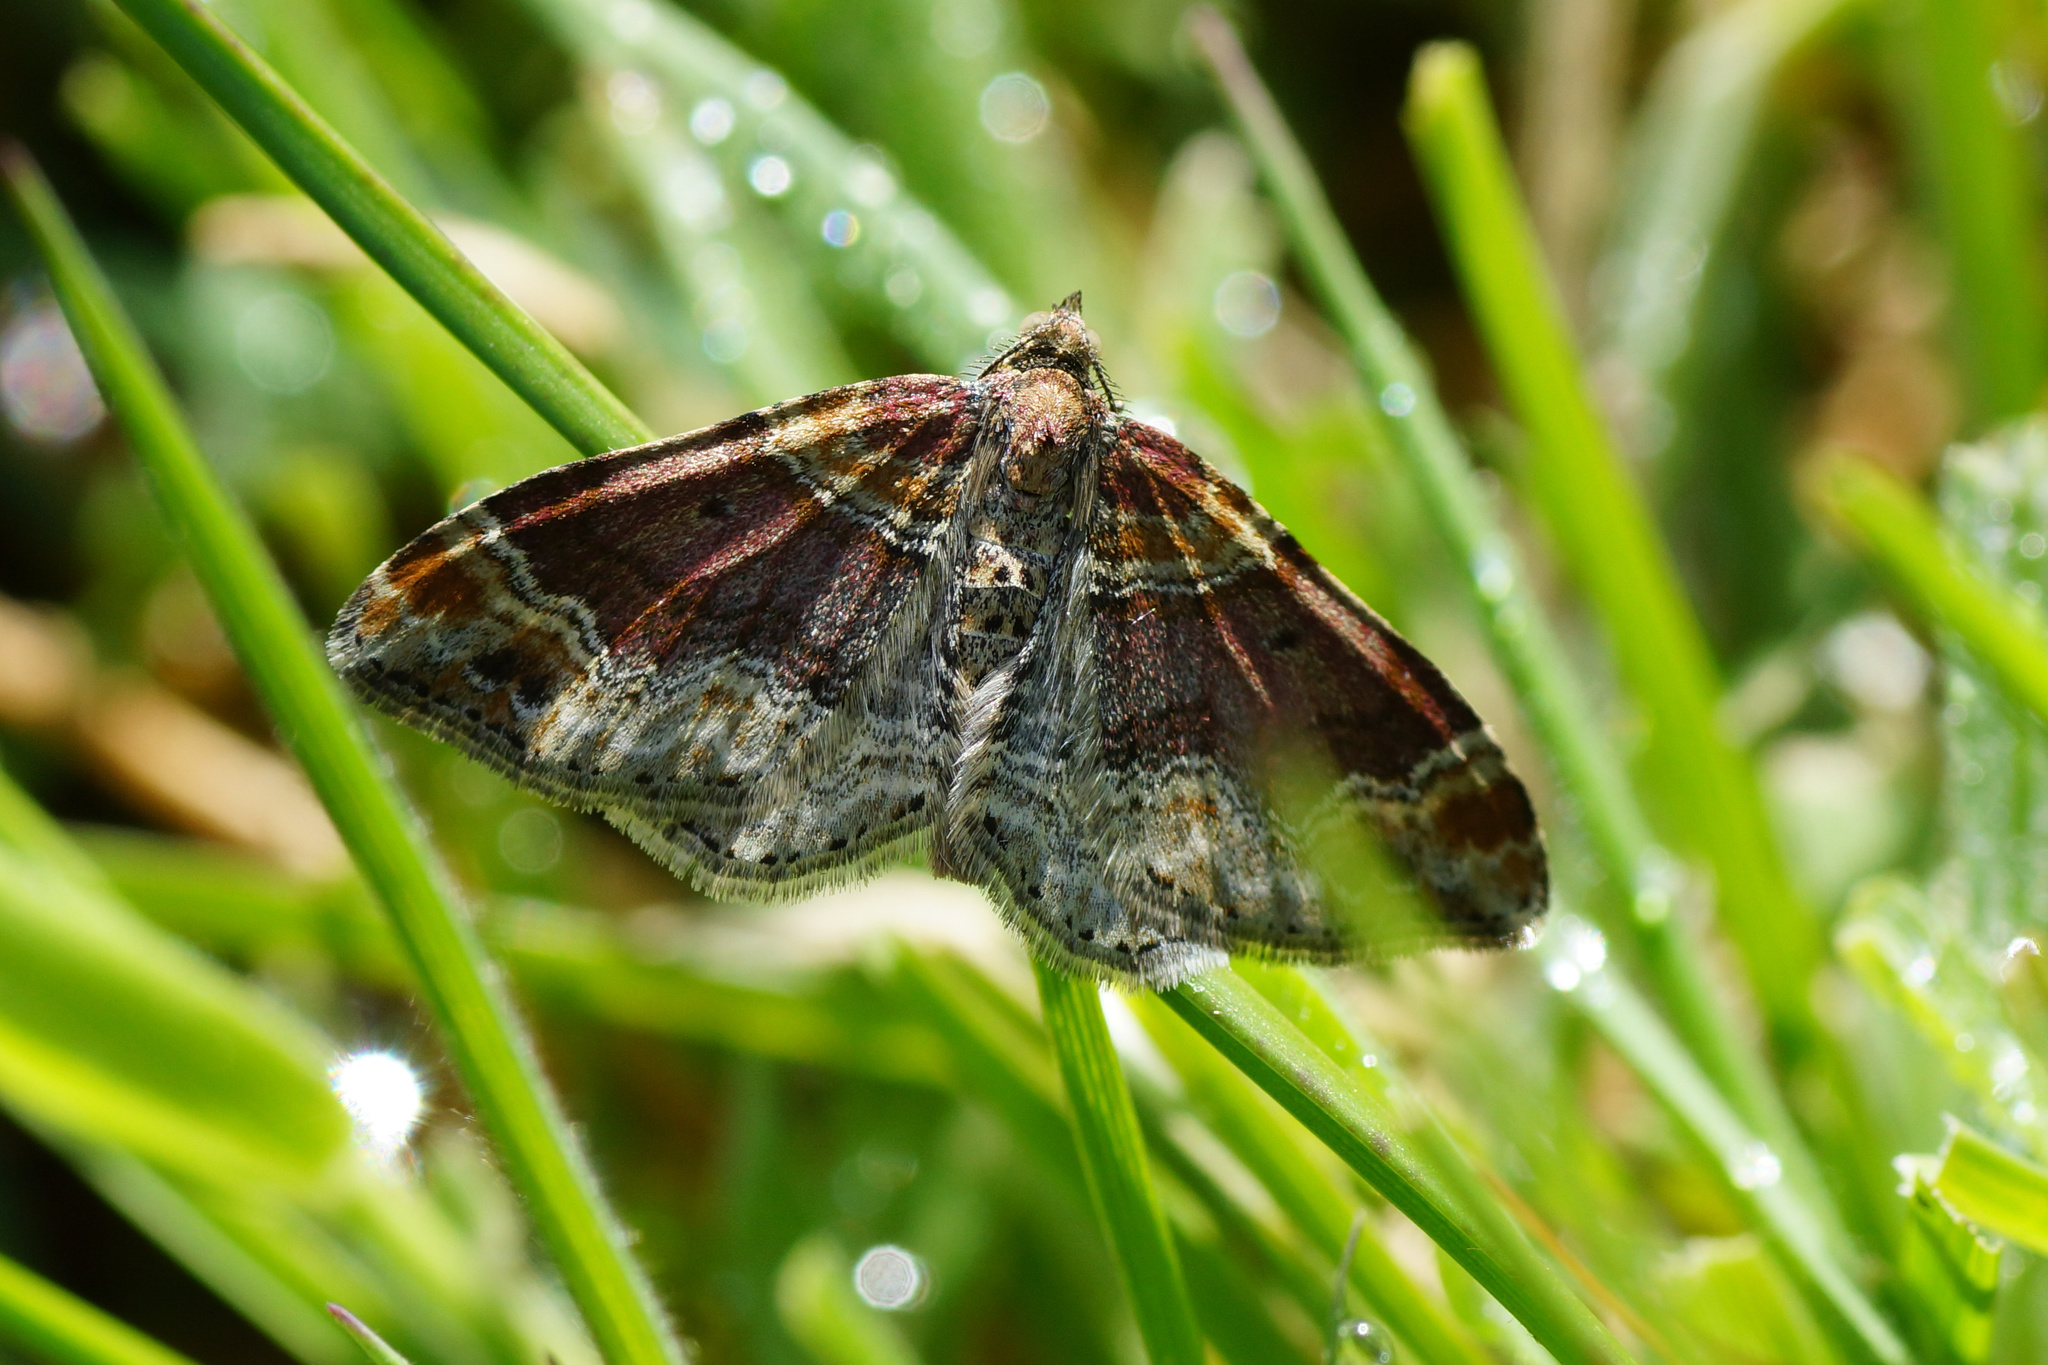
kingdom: Animalia
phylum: Arthropoda
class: Insecta
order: Lepidoptera
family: Geometridae
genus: Xanthorhoe
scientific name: Xanthorhoe spadicearia
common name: Red twin-spot carpet
